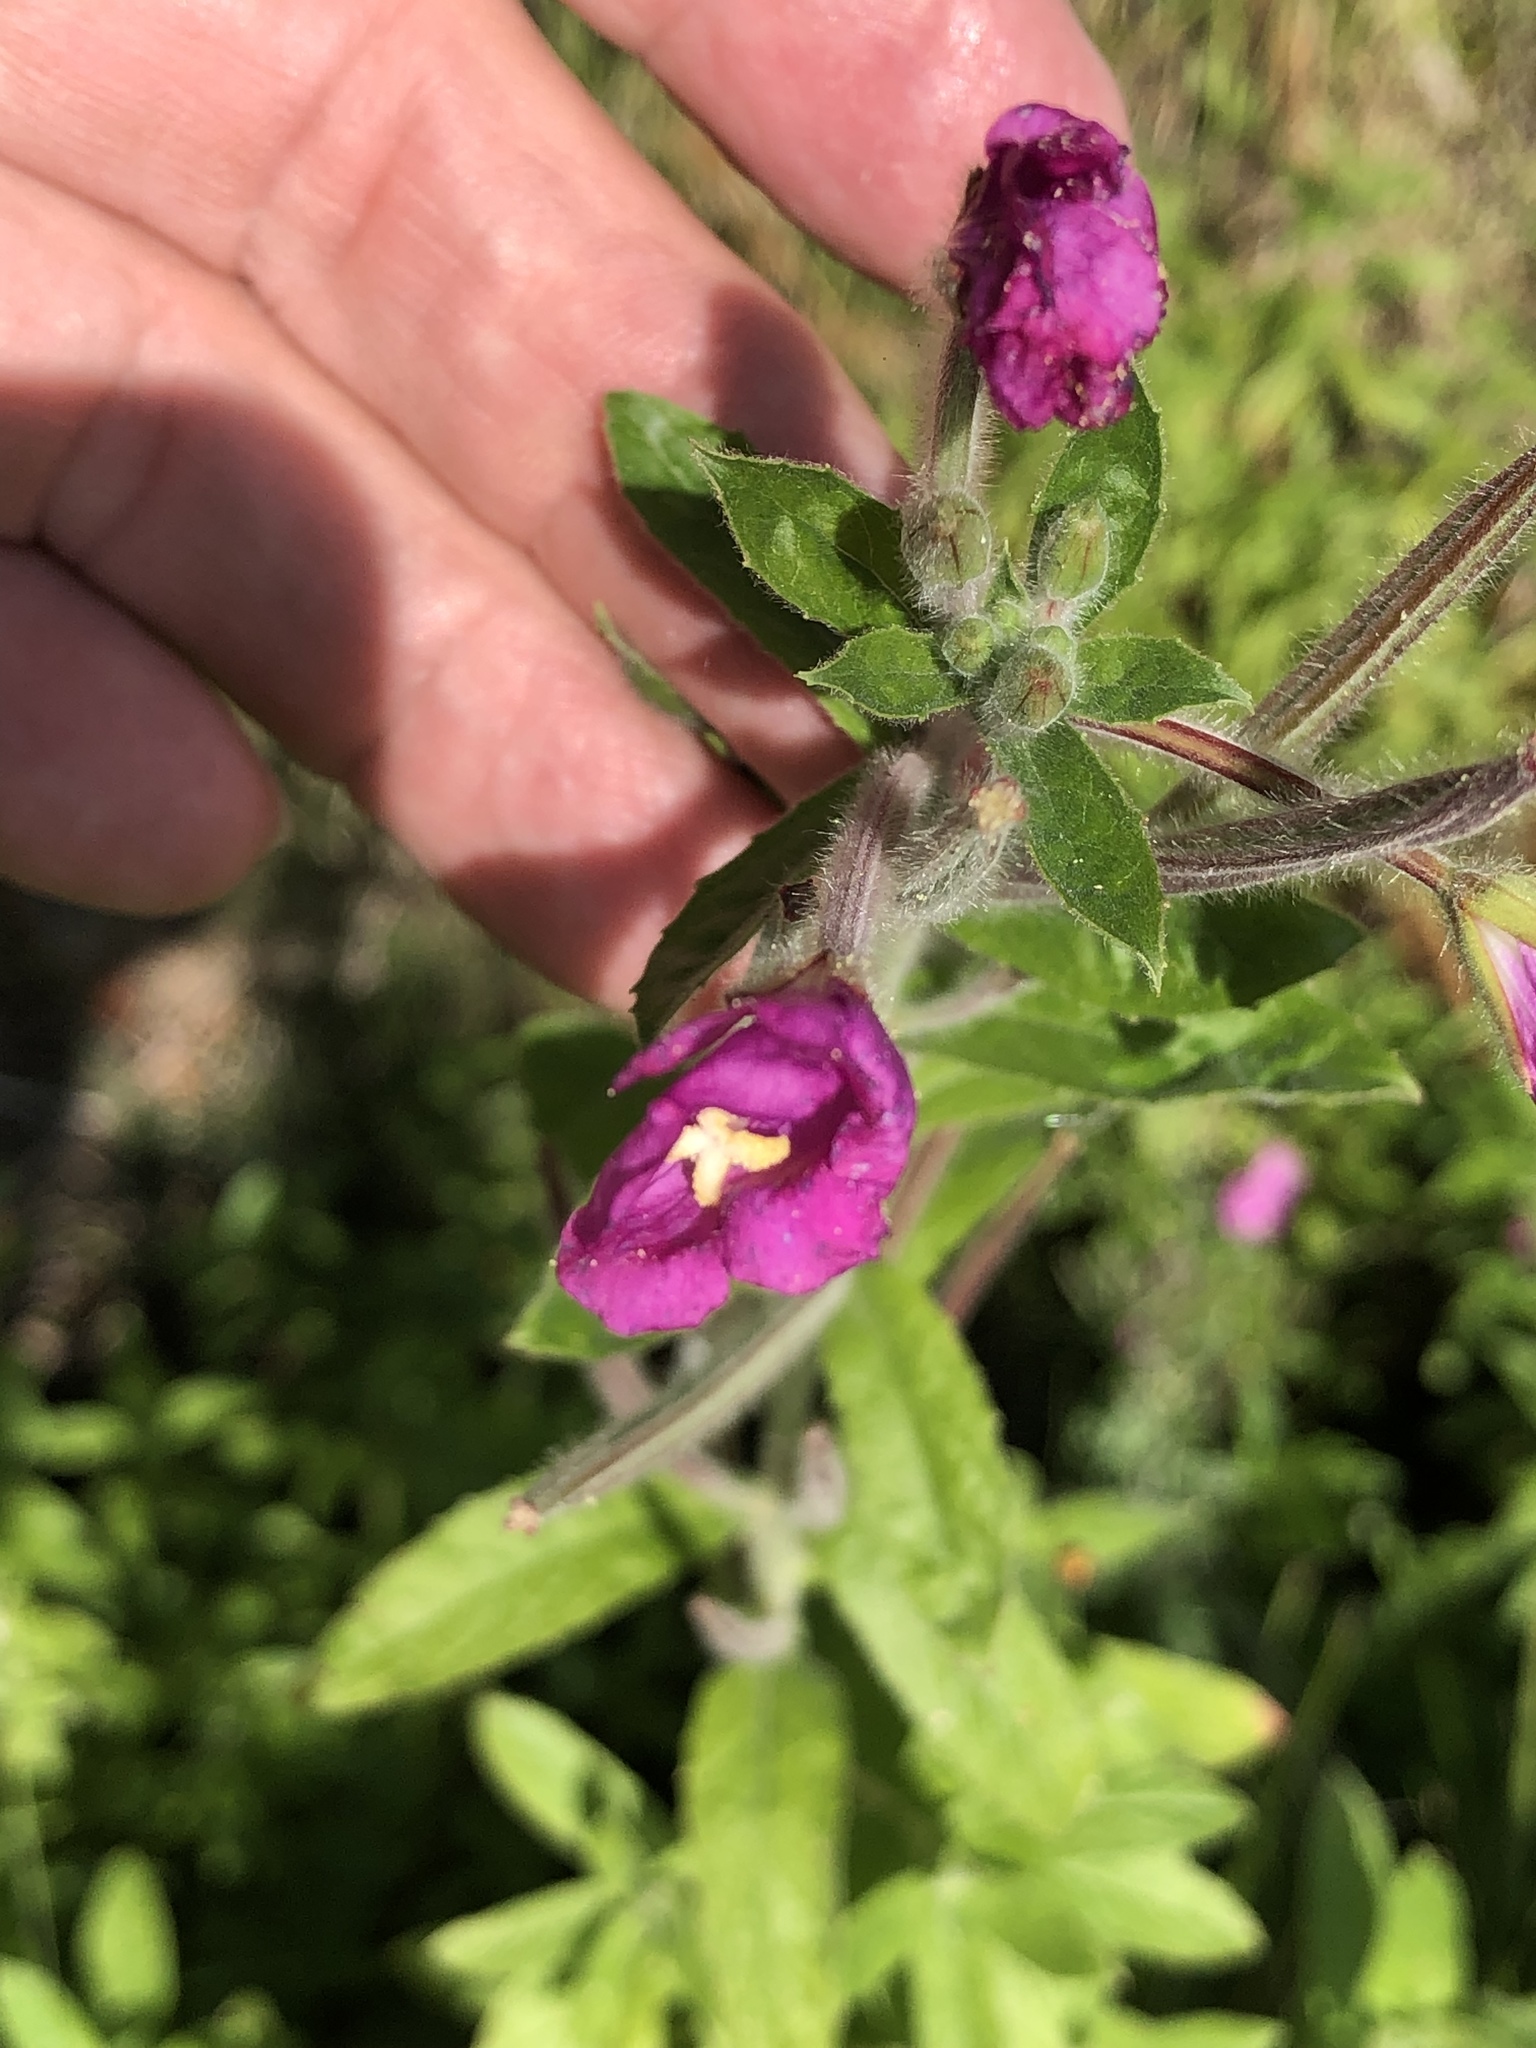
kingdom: Plantae
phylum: Tracheophyta
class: Magnoliopsida
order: Myrtales
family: Onagraceae
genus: Epilobium
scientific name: Epilobium hirsutum
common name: Great willowherb
